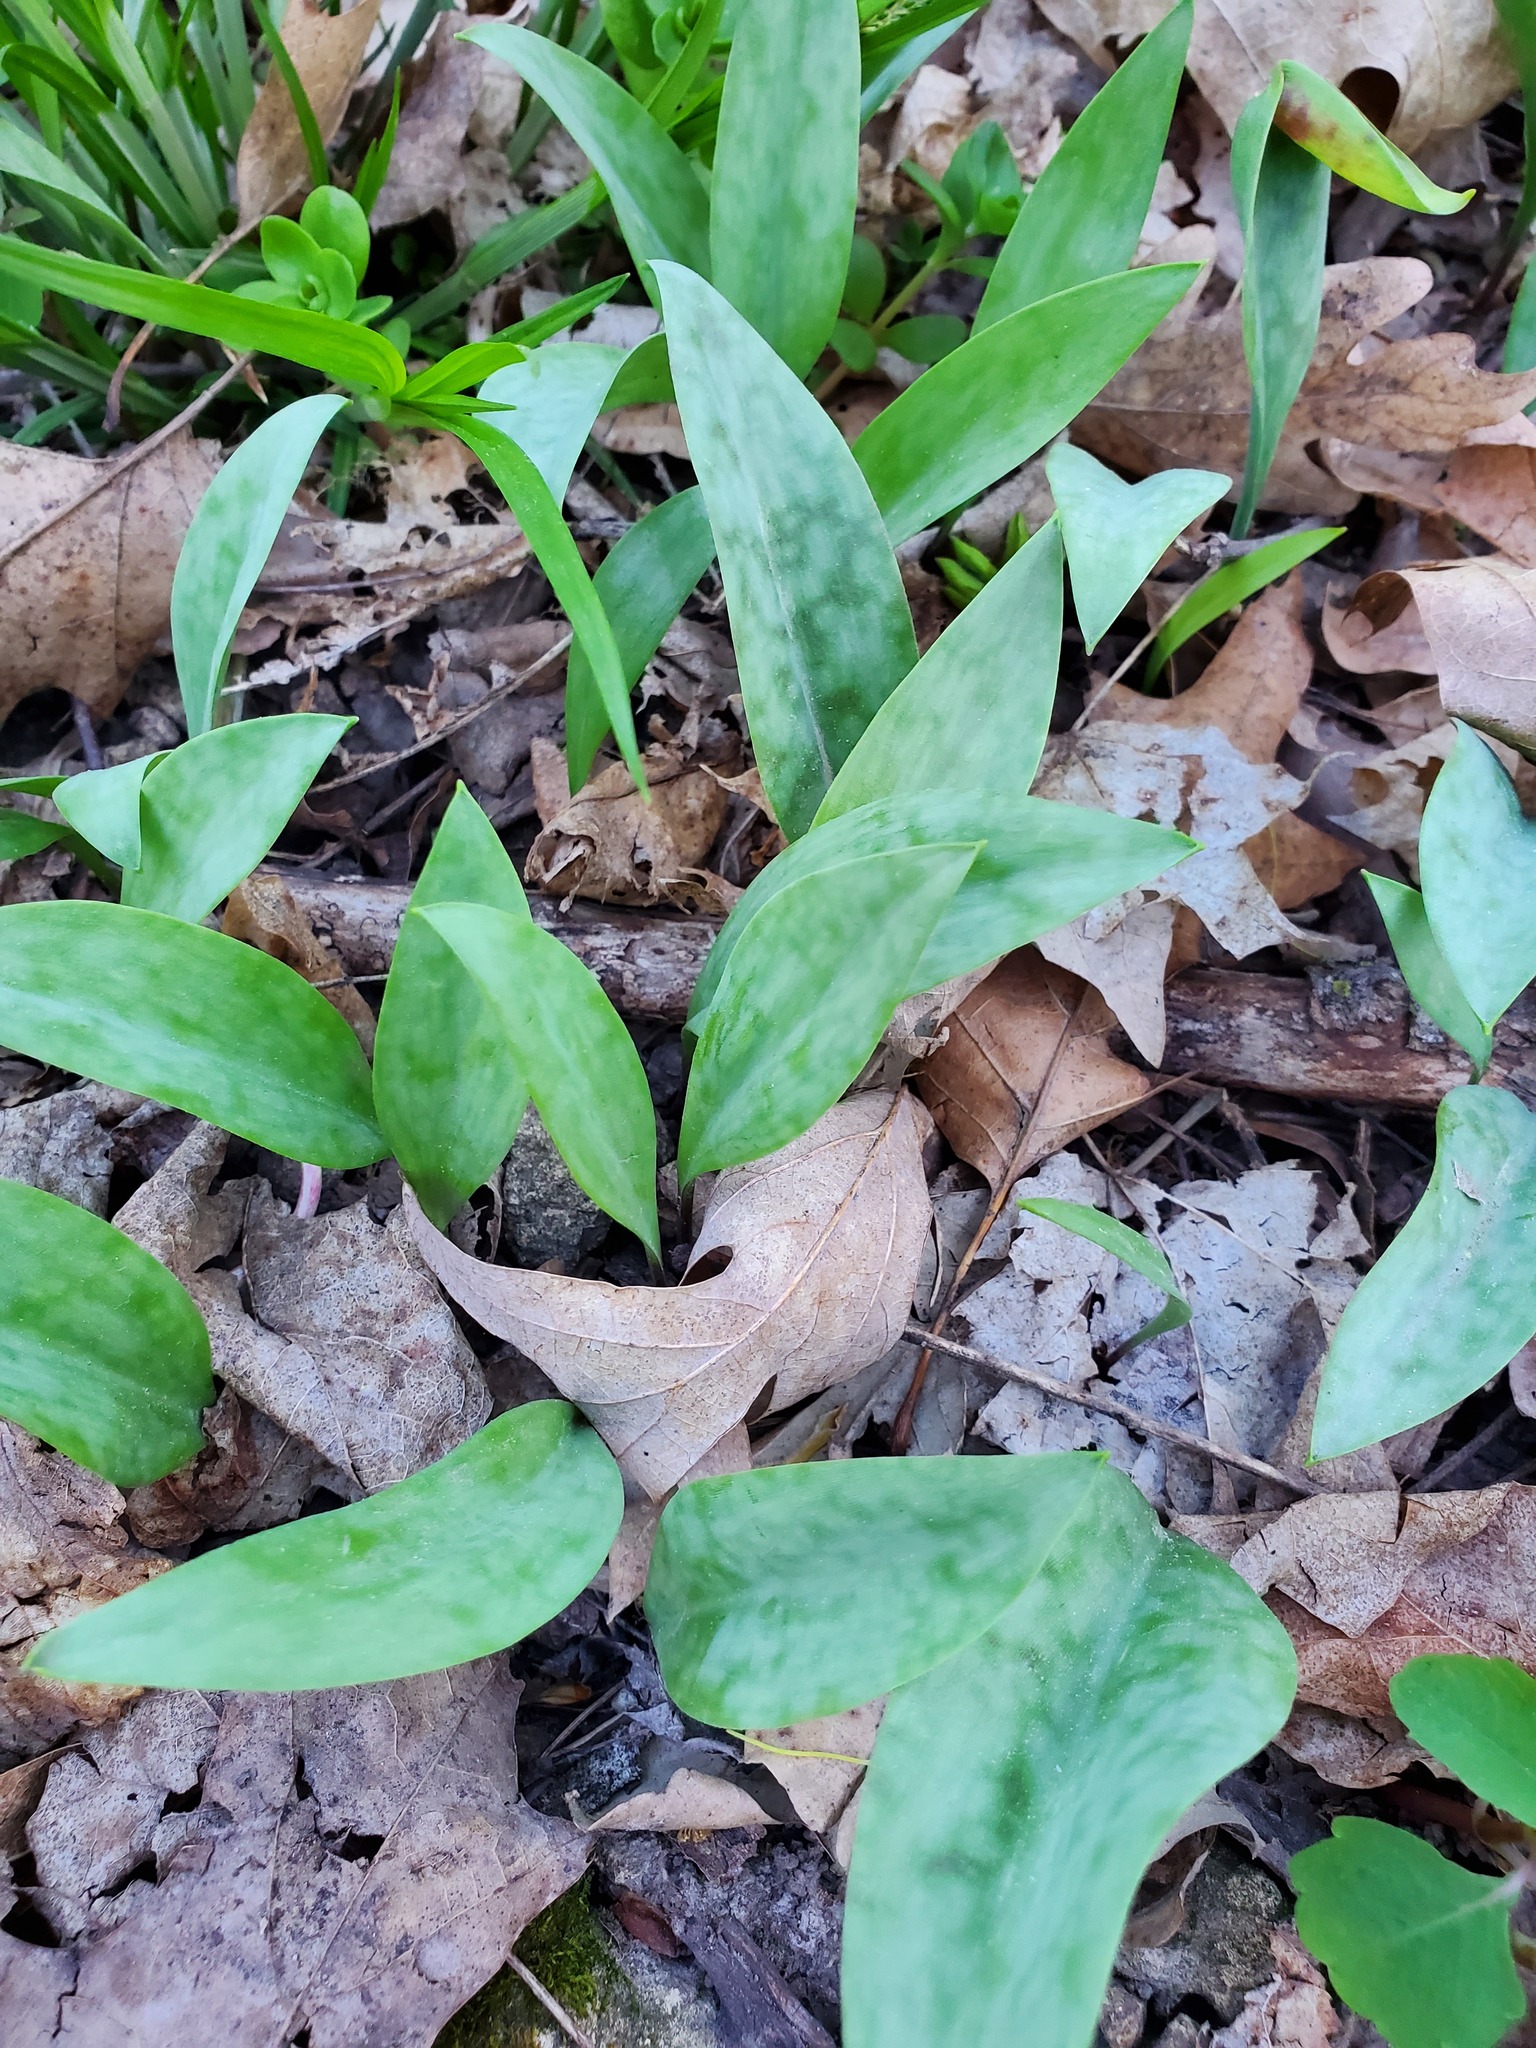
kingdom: Plantae
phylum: Tracheophyta
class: Liliopsida
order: Liliales
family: Liliaceae
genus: Erythronium
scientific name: Erythronium albidum
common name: White trout-lily
